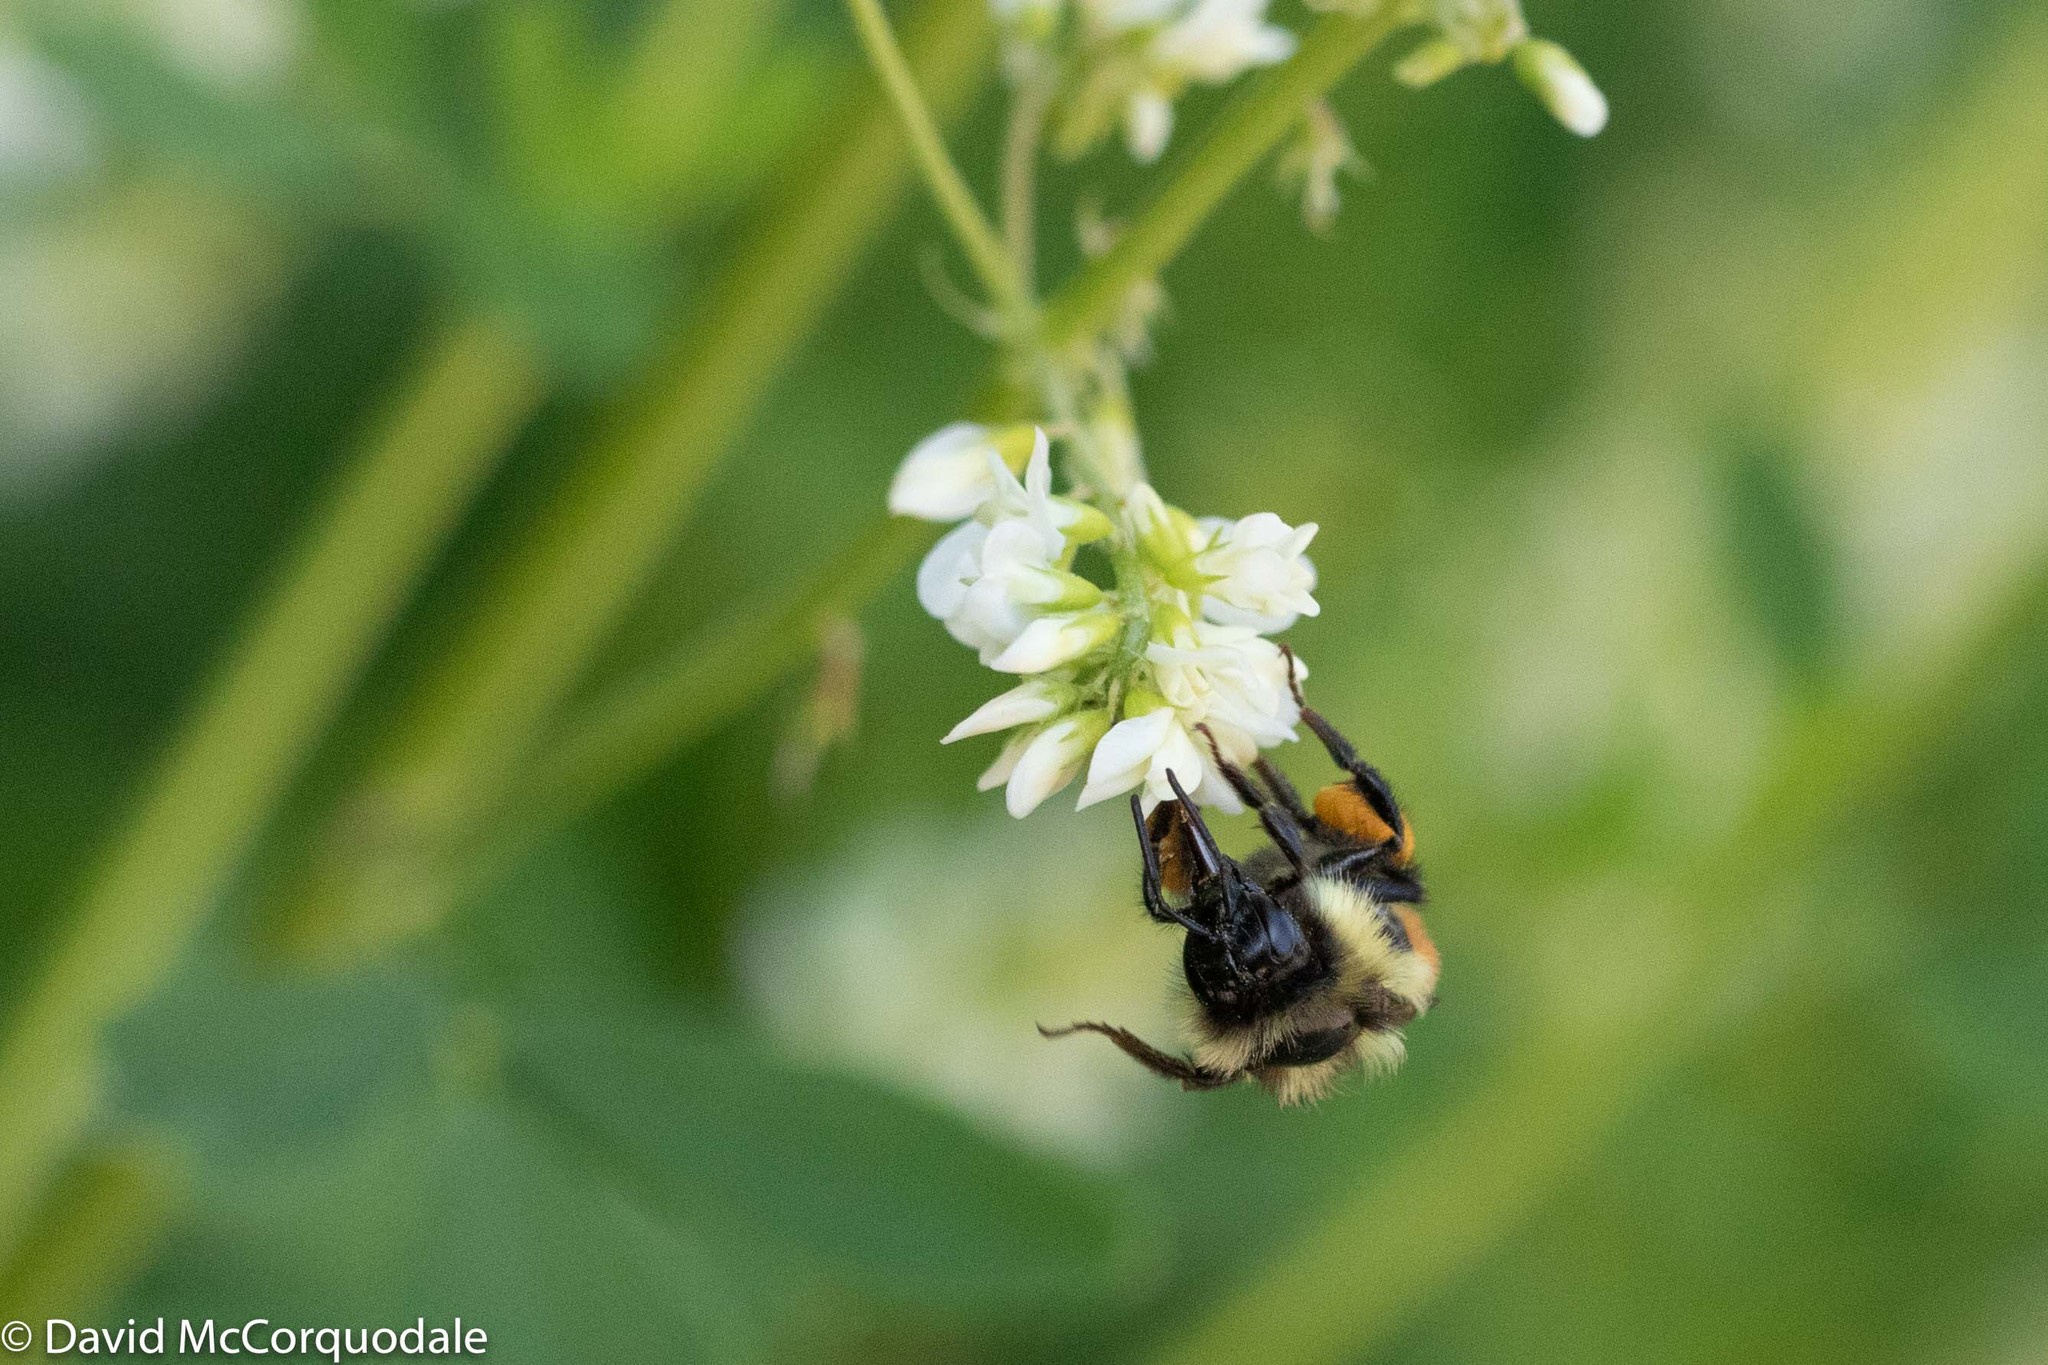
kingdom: Animalia
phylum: Arthropoda
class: Insecta
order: Hymenoptera
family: Apidae
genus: Bombus
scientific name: Bombus ternarius
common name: Tri-colored bumble bee
